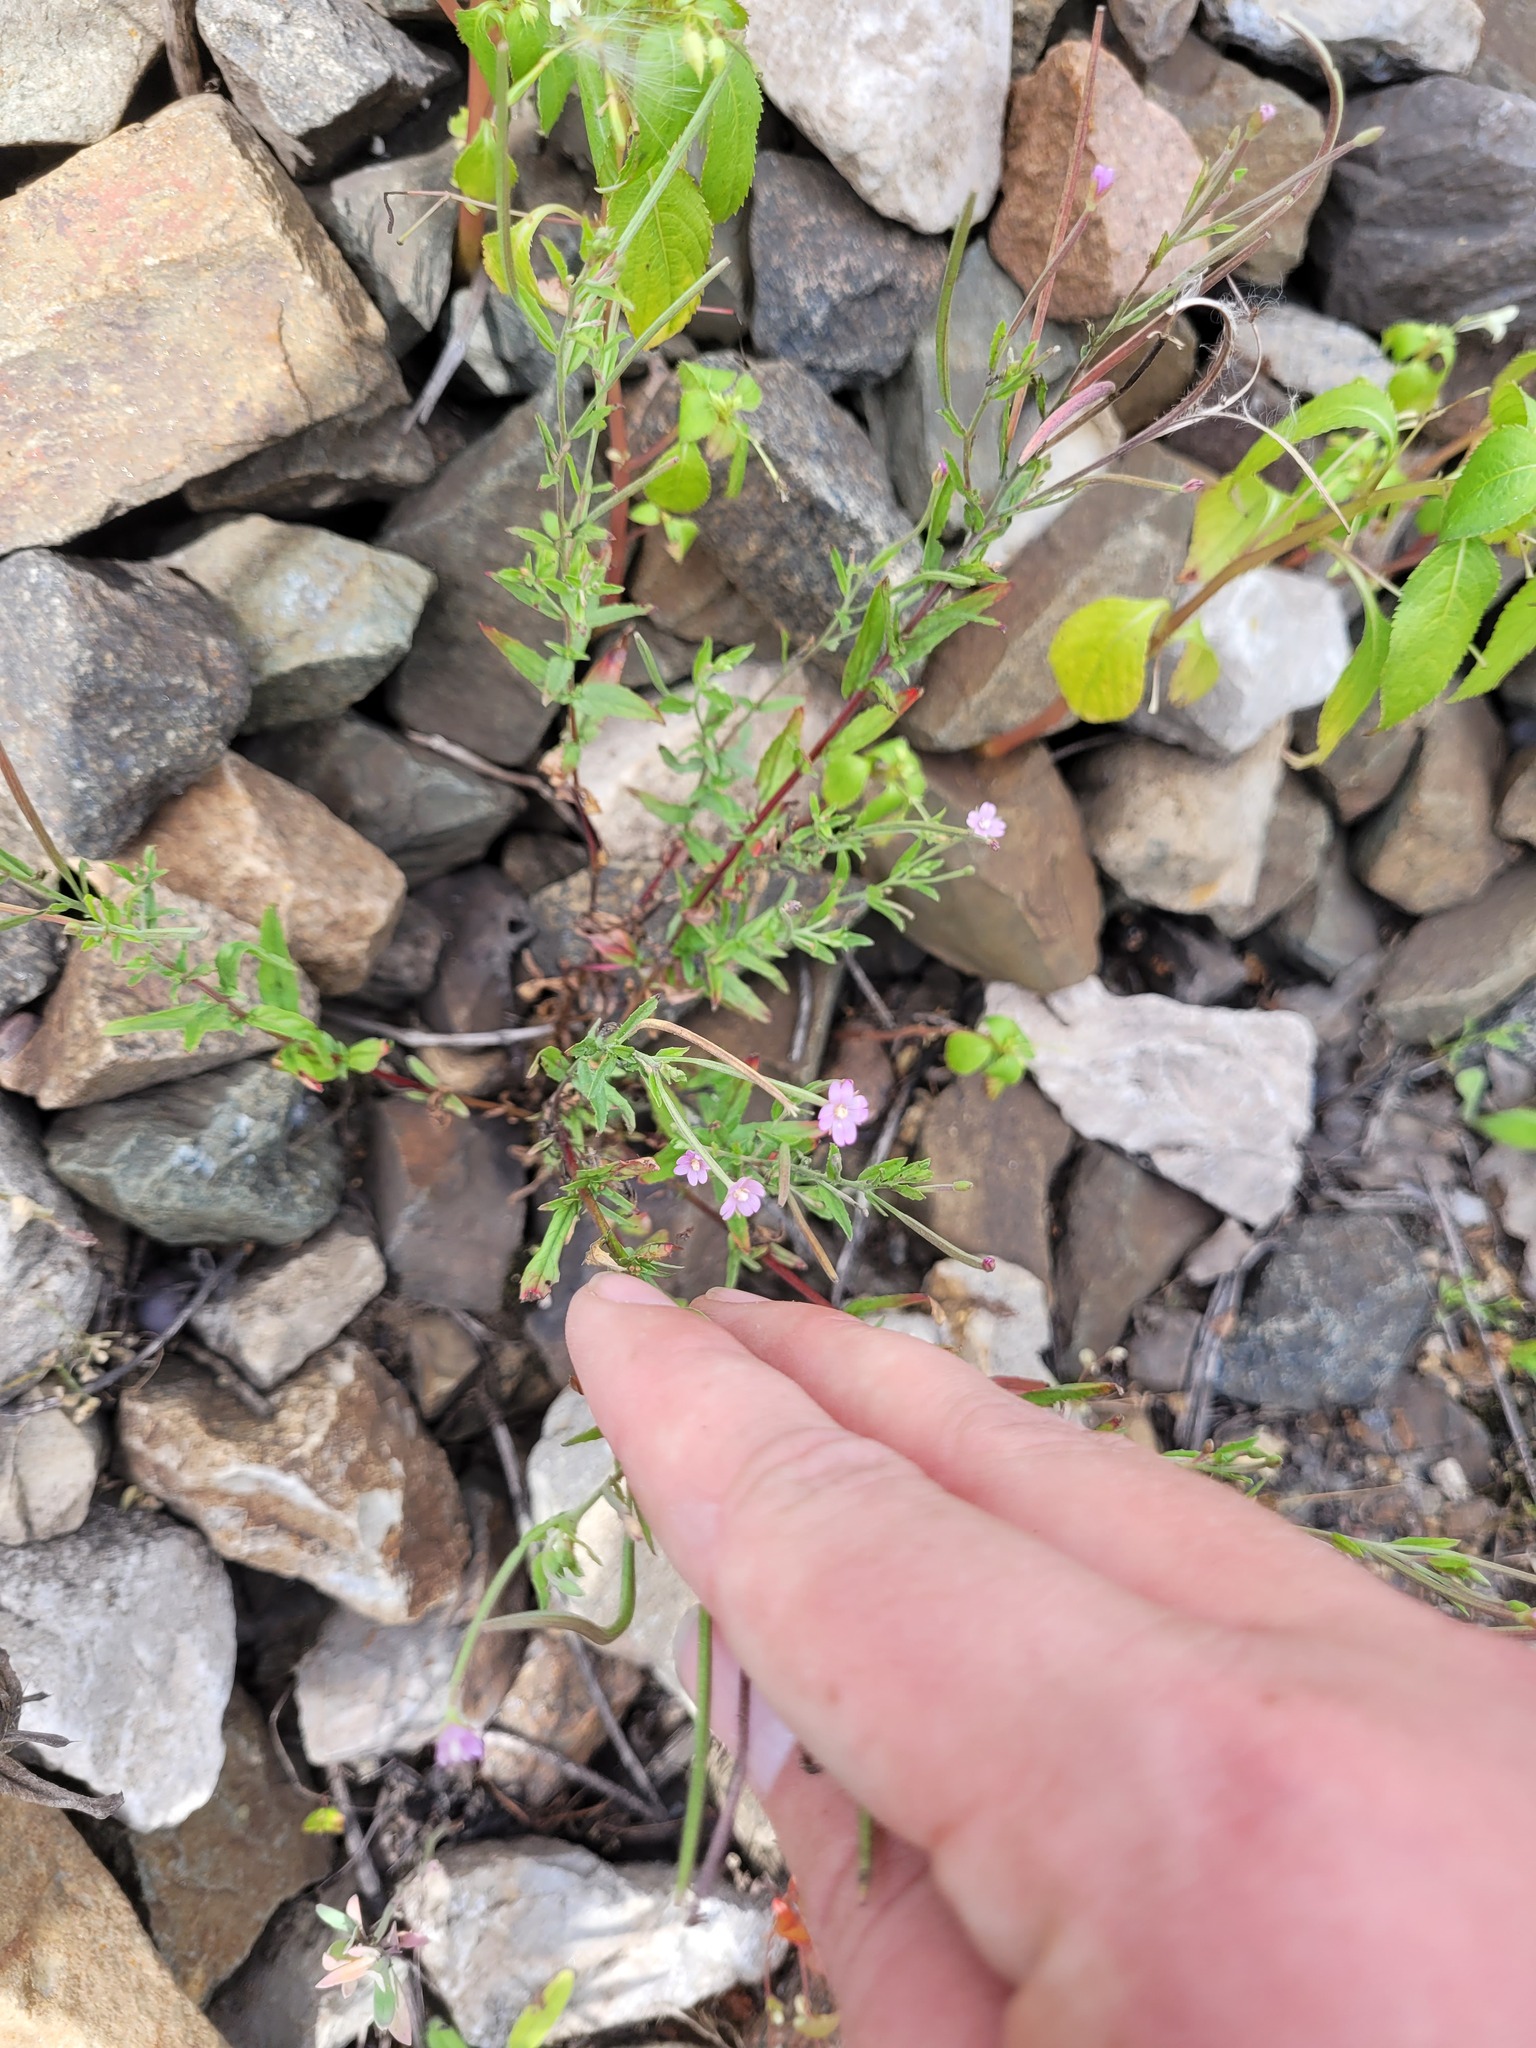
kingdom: Plantae
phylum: Tracheophyta
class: Magnoliopsida
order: Myrtales
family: Onagraceae
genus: Epilobium
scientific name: Epilobium tetragonum
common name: Square-stemmed willowherb
